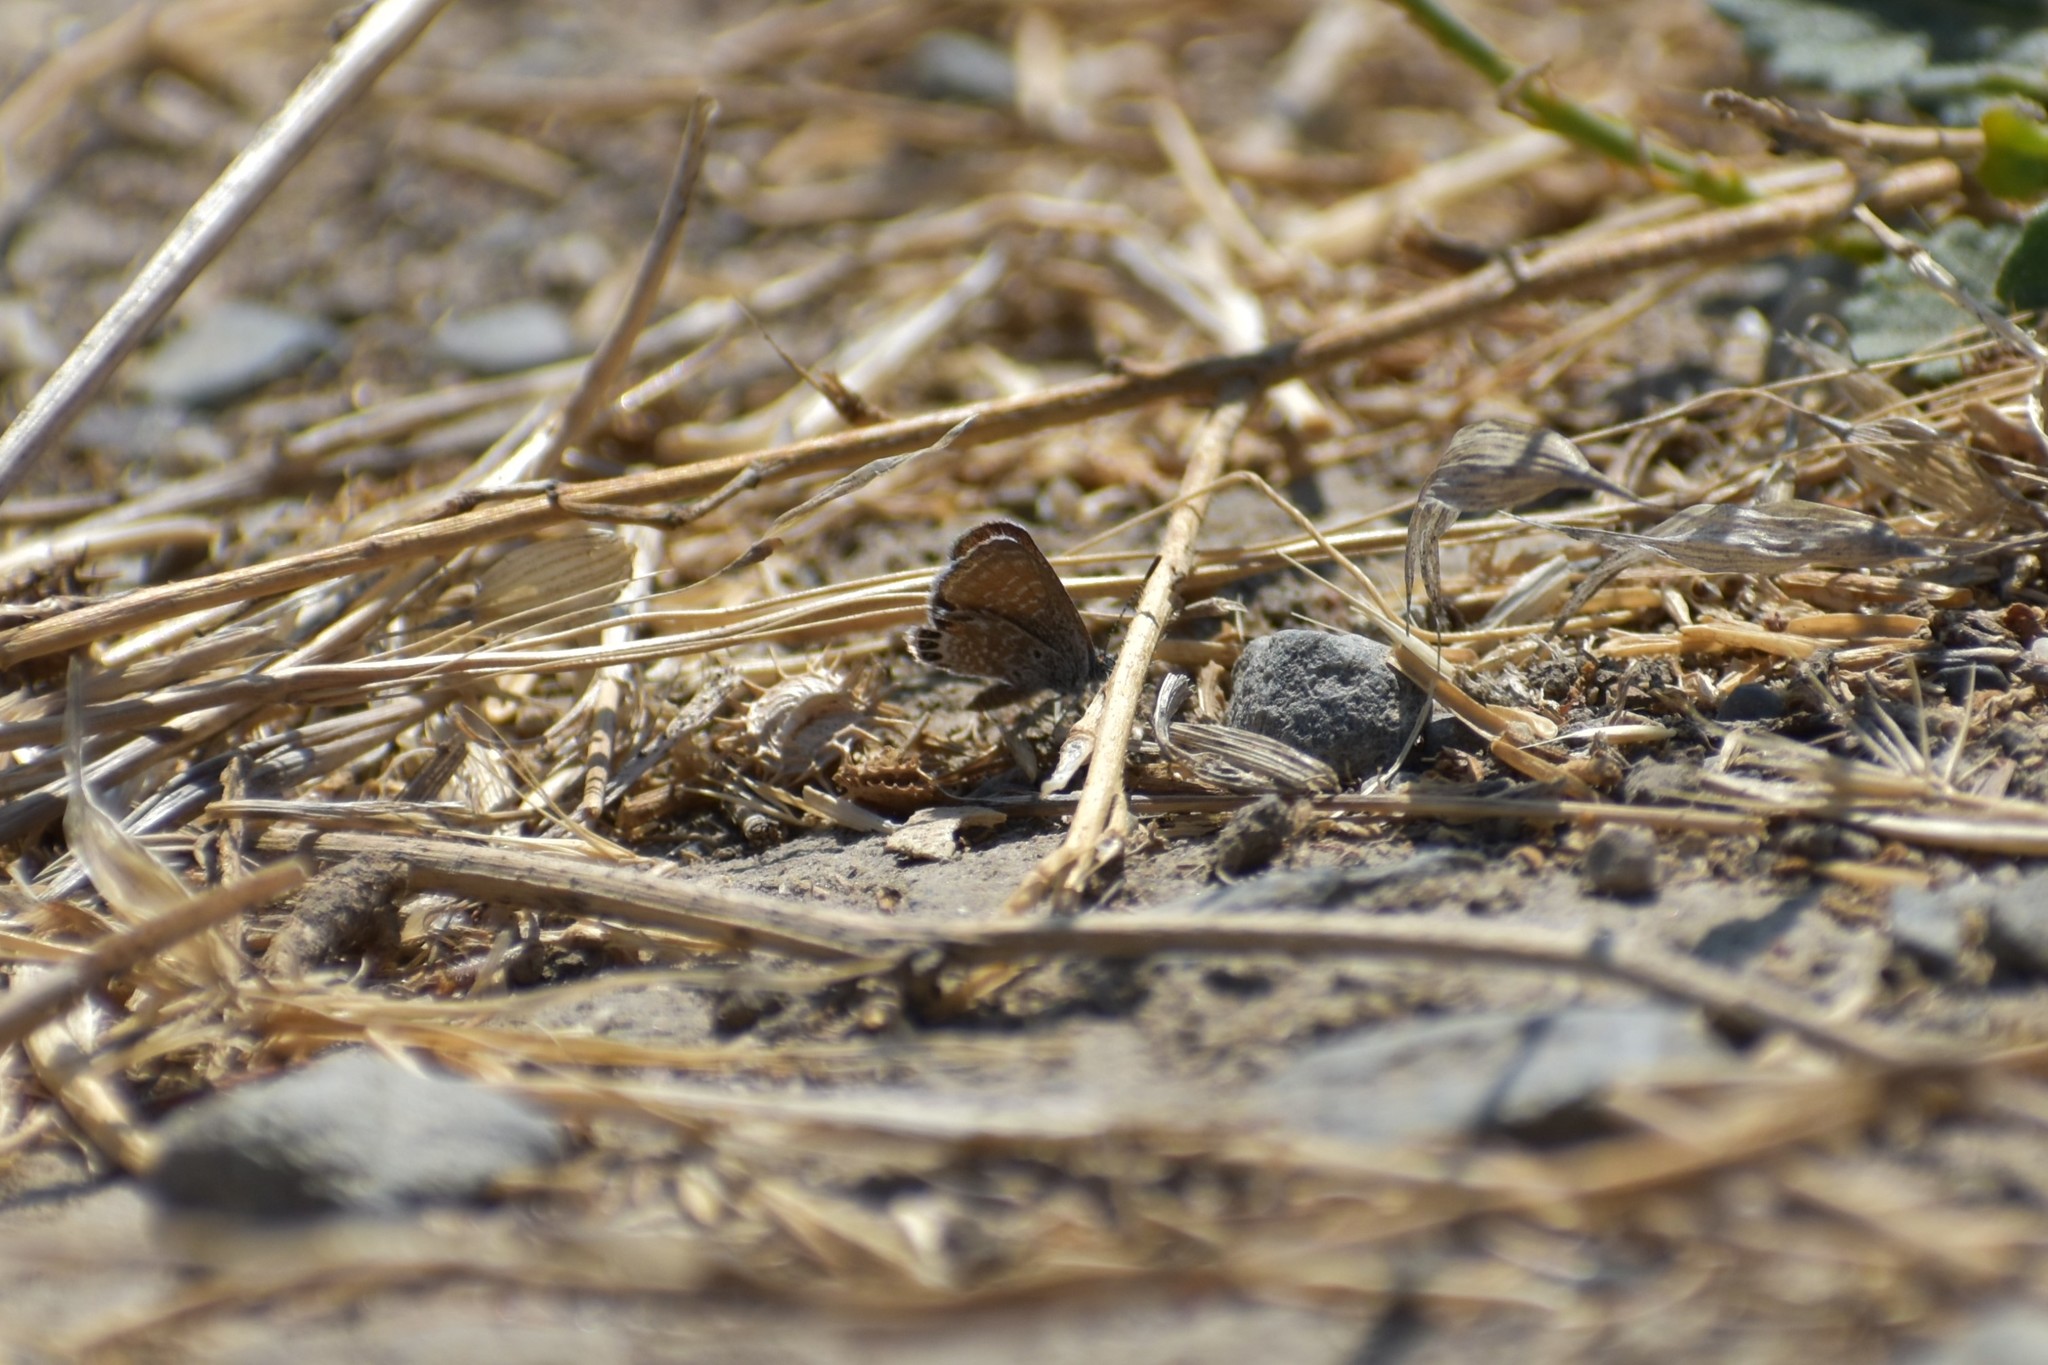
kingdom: Animalia
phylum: Arthropoda
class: Insecta
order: Lepidoptera
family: Lycaenidae
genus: Brephidium
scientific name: Brephidium exilis
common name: Pygmy blue
